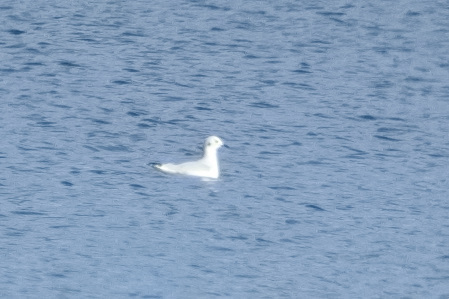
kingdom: Animalia
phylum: Chordata
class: Aves
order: Charadriiformes
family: Laridae
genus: Chroicocephalus
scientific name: Chroicocephalus philadelphia
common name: Bonaparte's gull
